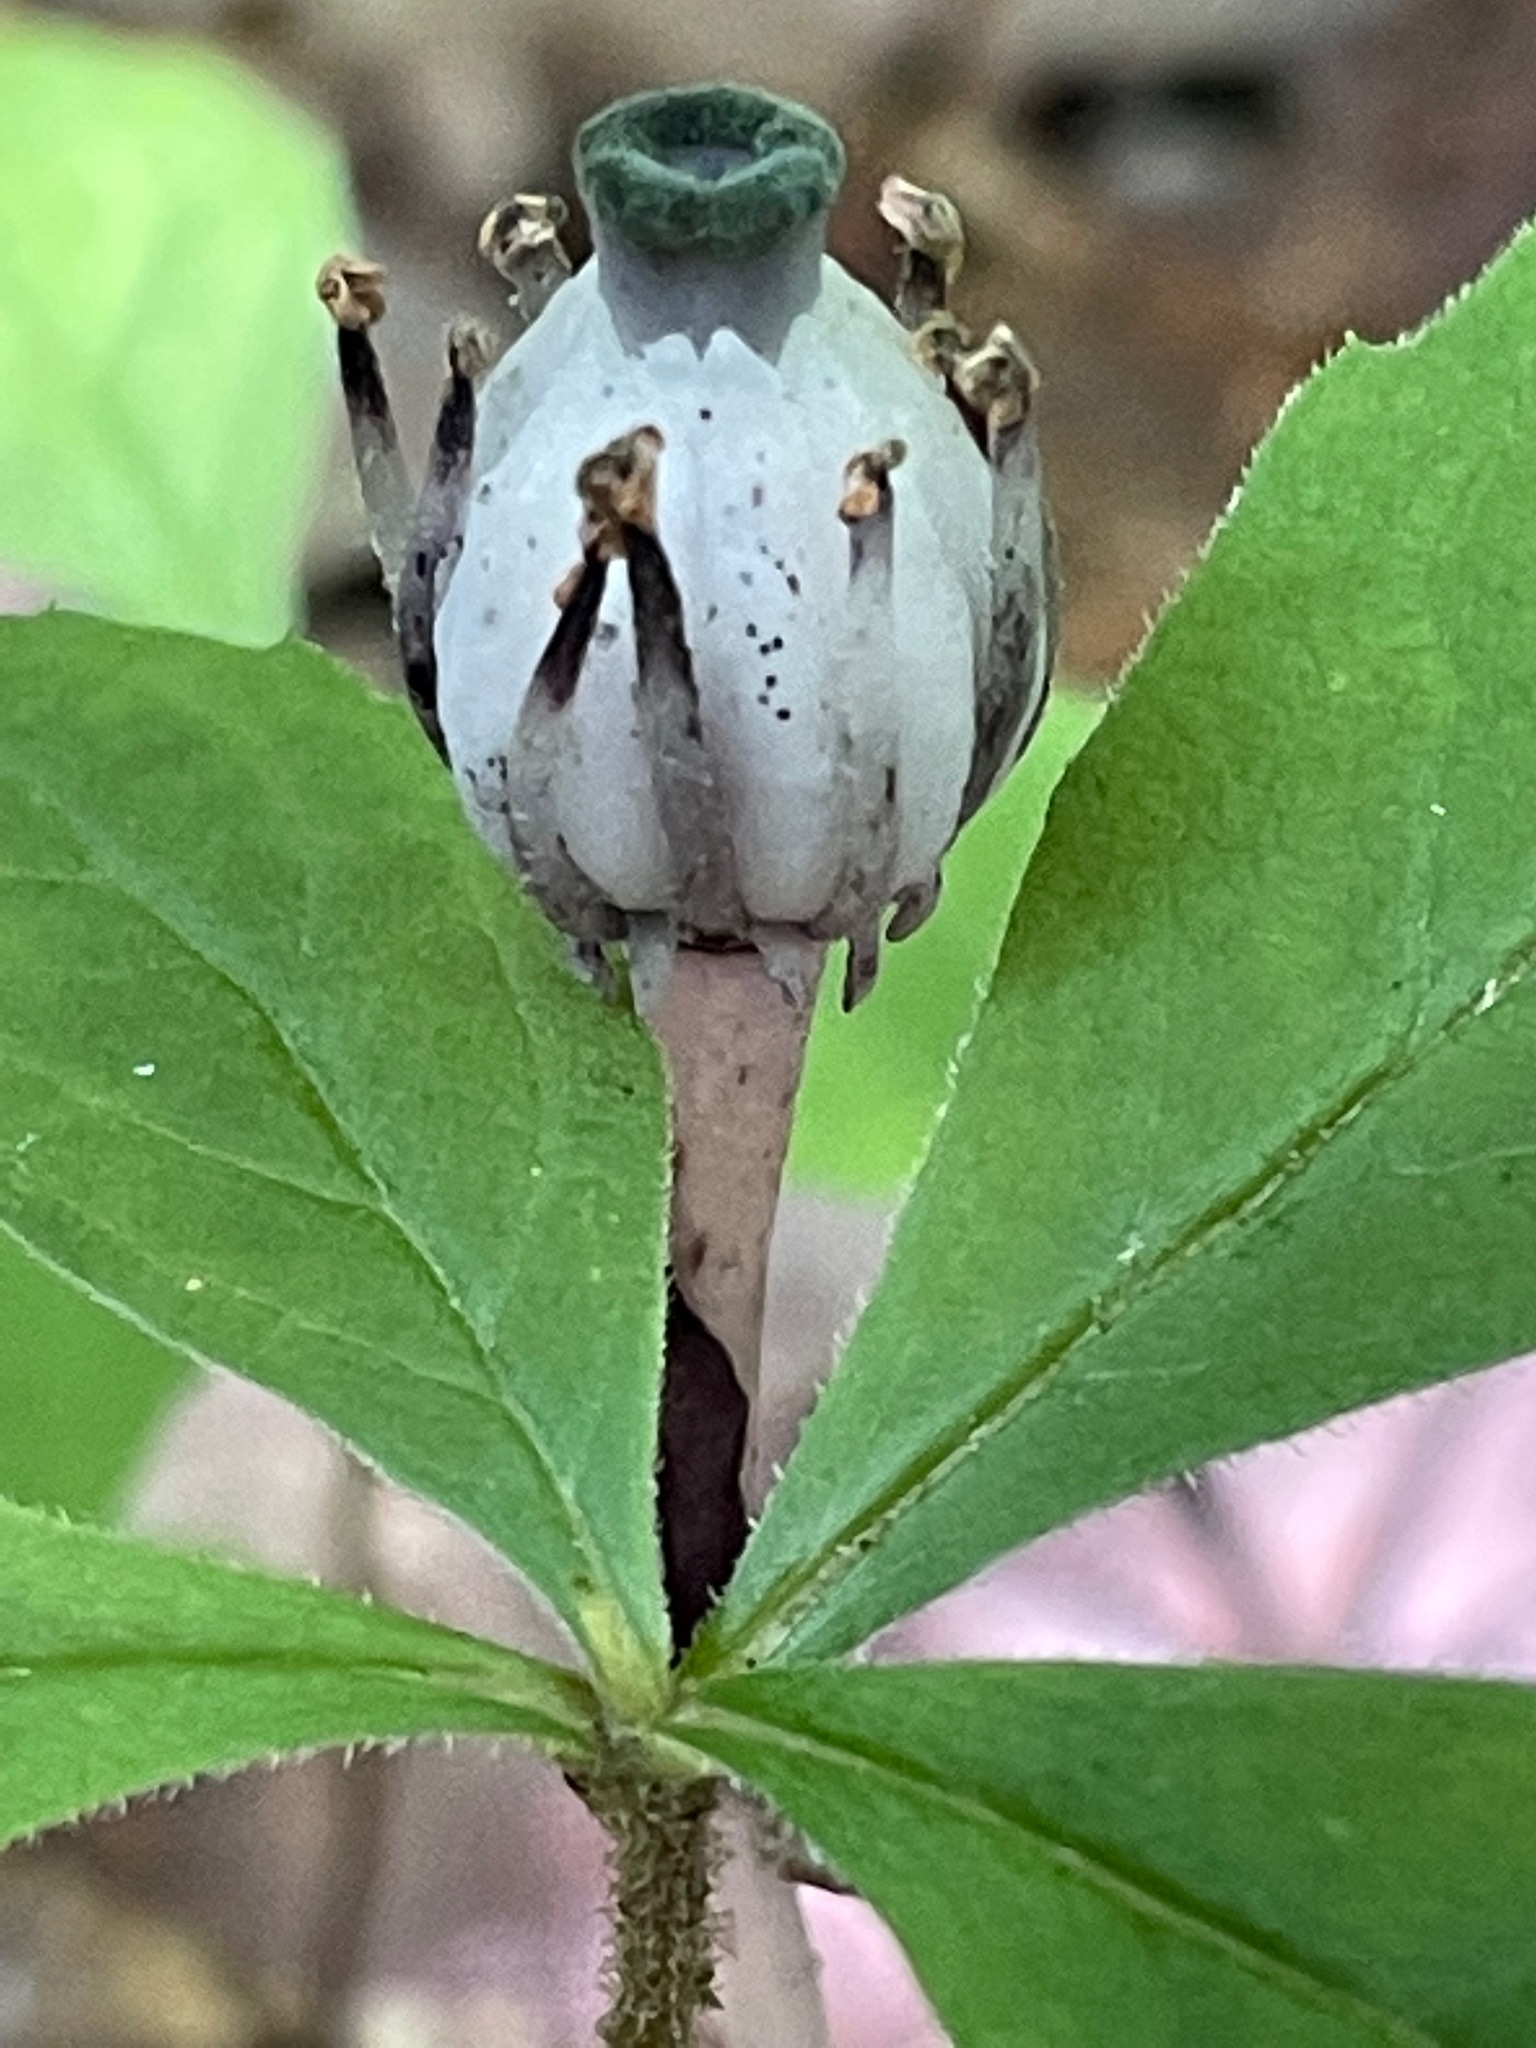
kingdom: Plantae
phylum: Tracheophyta
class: Magnoliopsida
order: Ericales
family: Ericaceae
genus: Monotropa
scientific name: Monotropa uniflora
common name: Convulsion root
